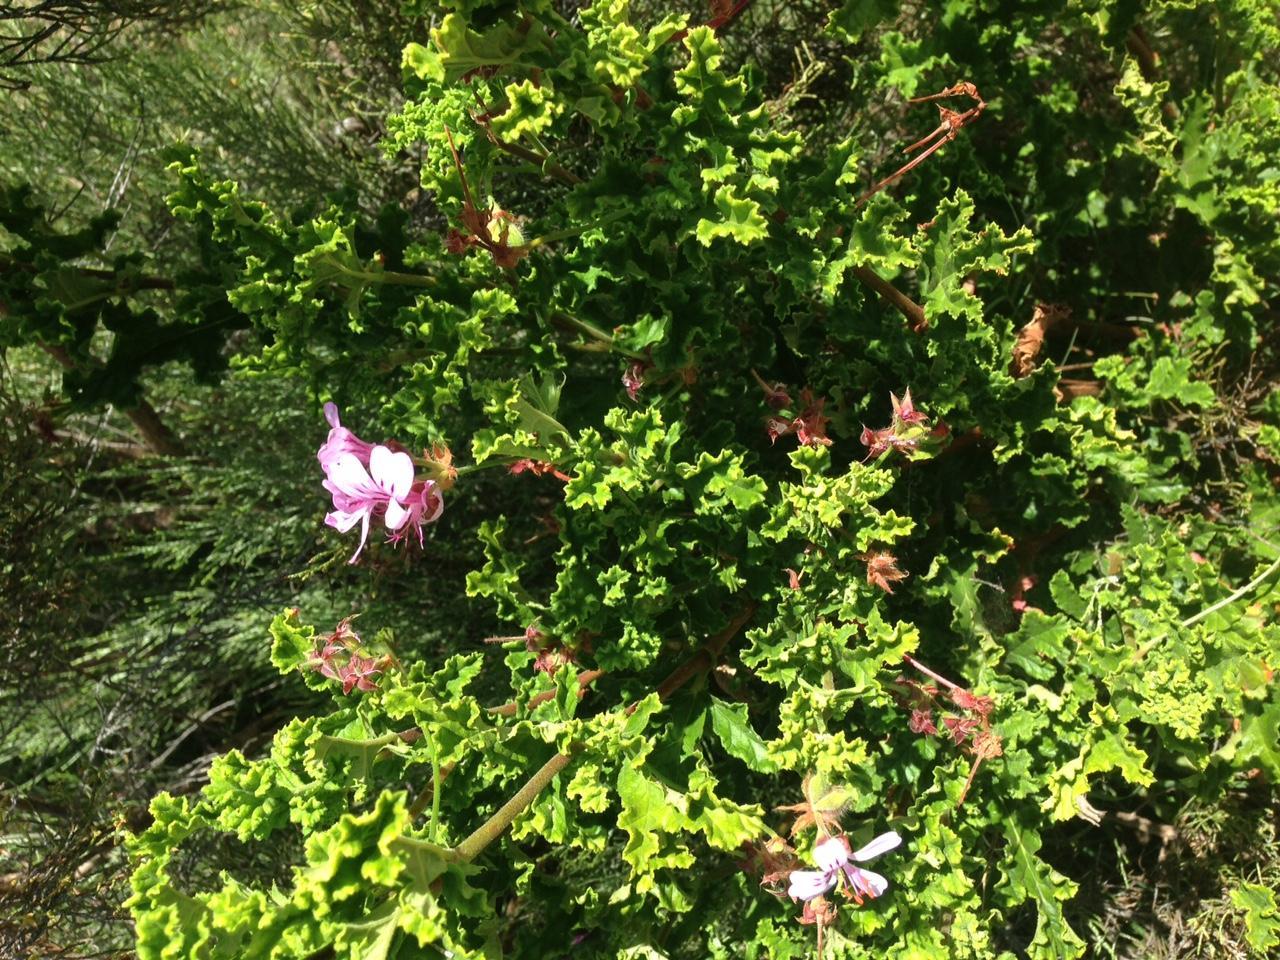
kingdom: Plantae
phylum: Tracheophyta
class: Magnoliopsida
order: Geraniales
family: Geraniaceae
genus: Pelargonium
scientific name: Pelargonium panduriforme
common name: Oakleaf garden geranium
